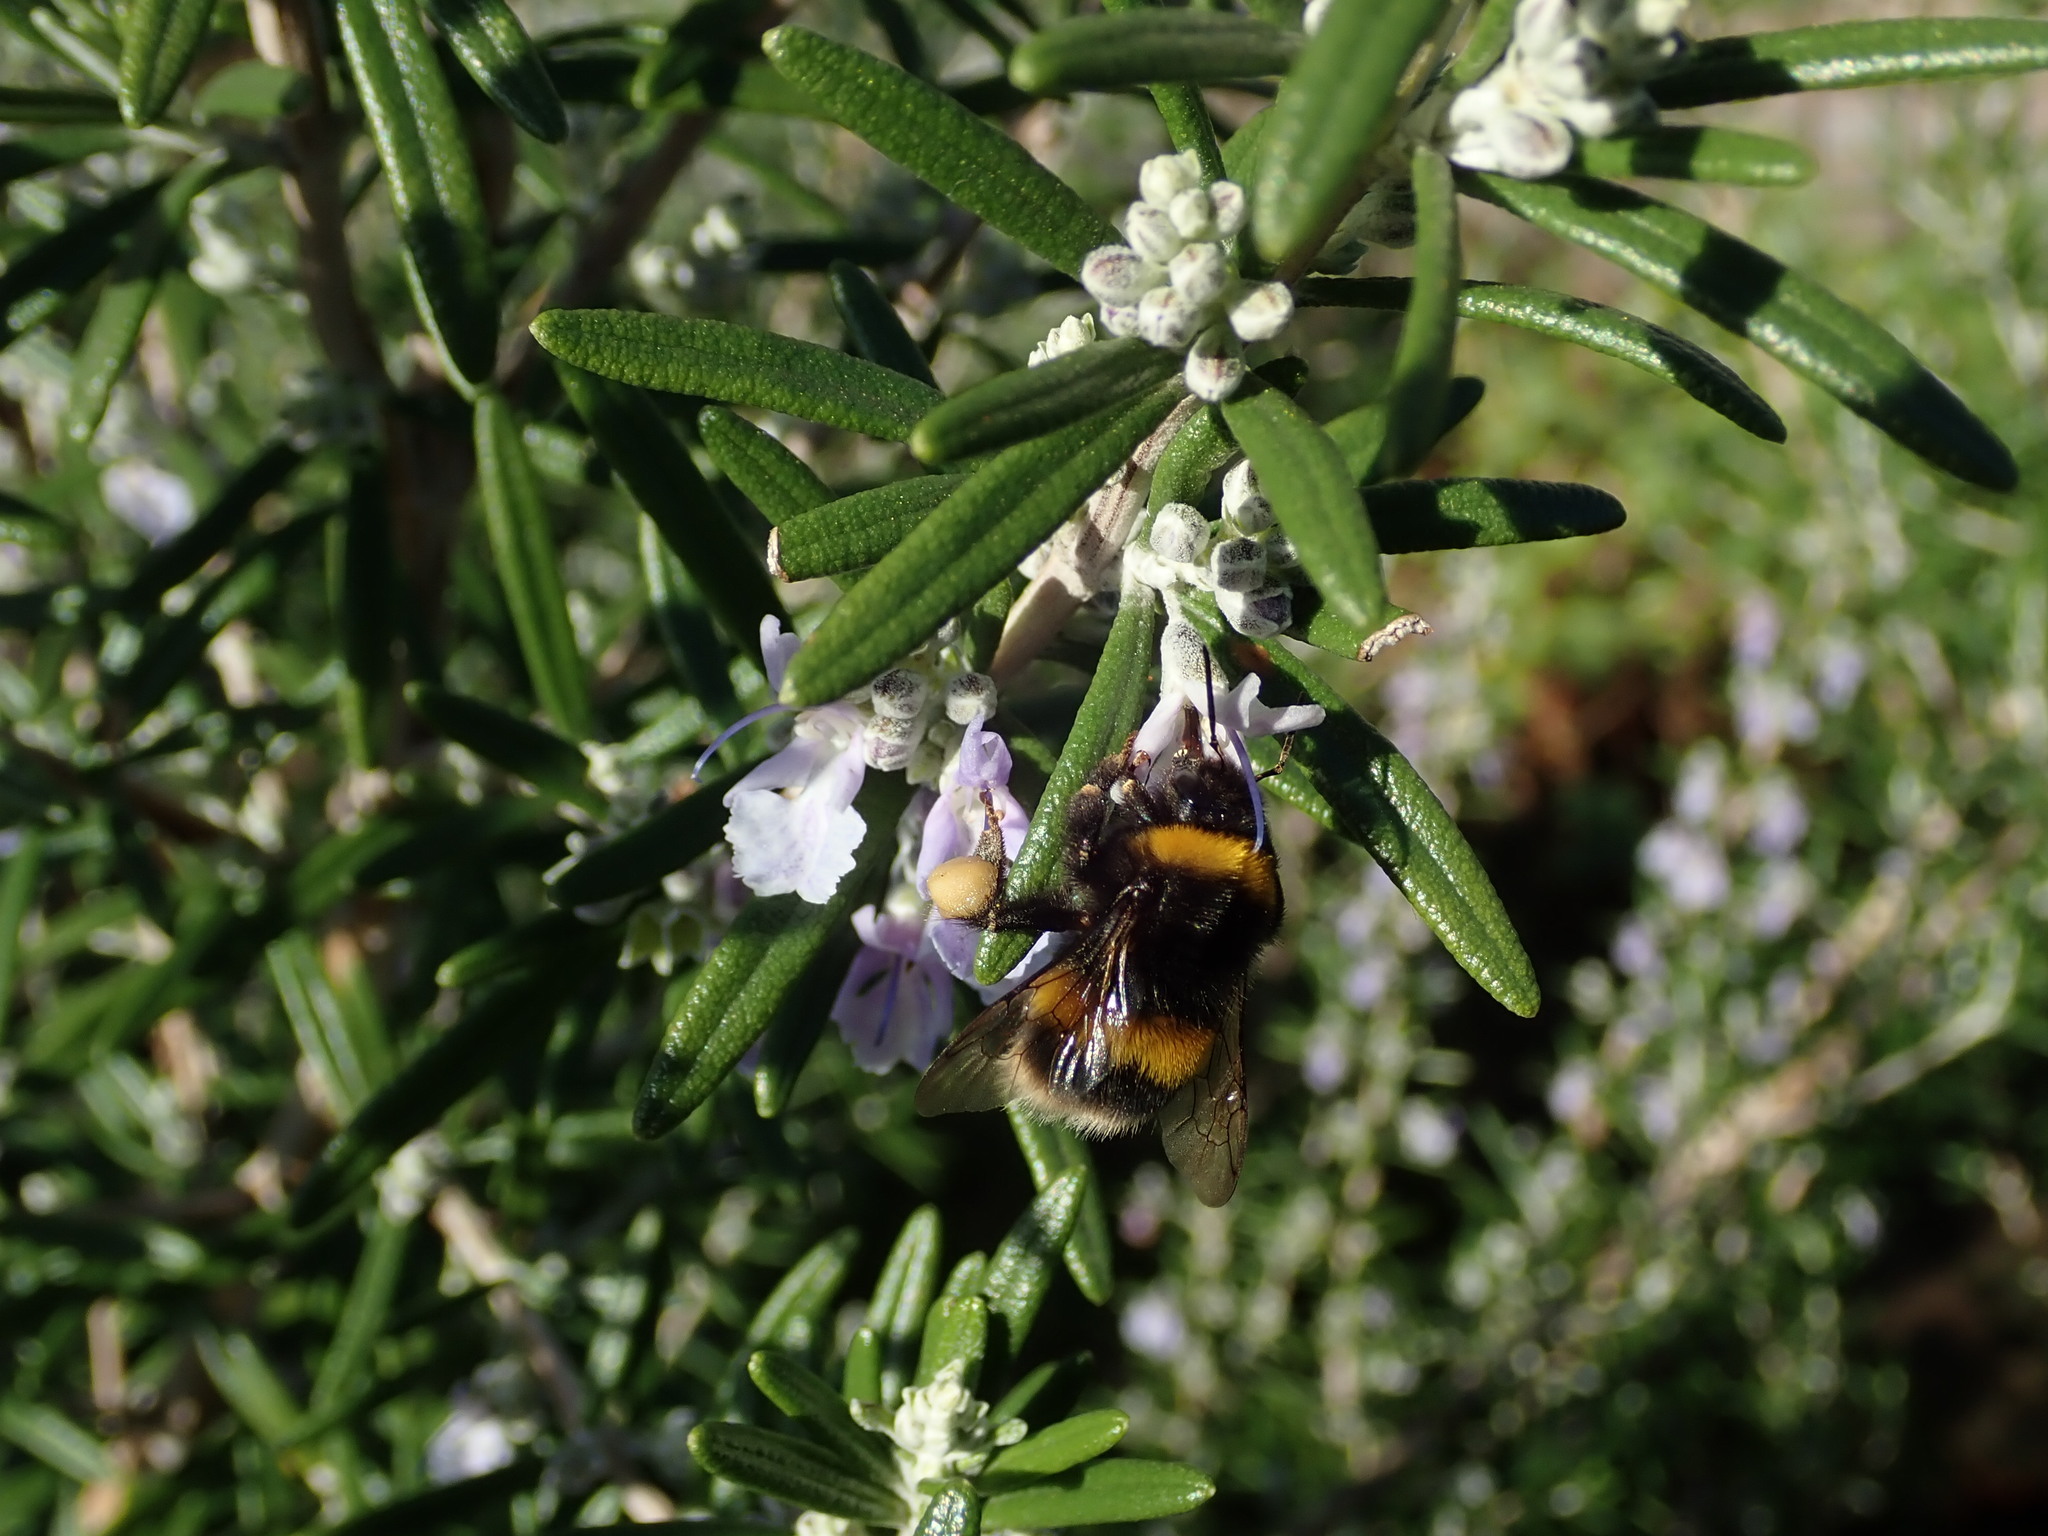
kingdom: Animalia
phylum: Arthropoda
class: Insecta
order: Hymenoptera
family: Apidae
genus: Bombus
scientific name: Bombus terrestris
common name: Buff-tailed bumblebee
